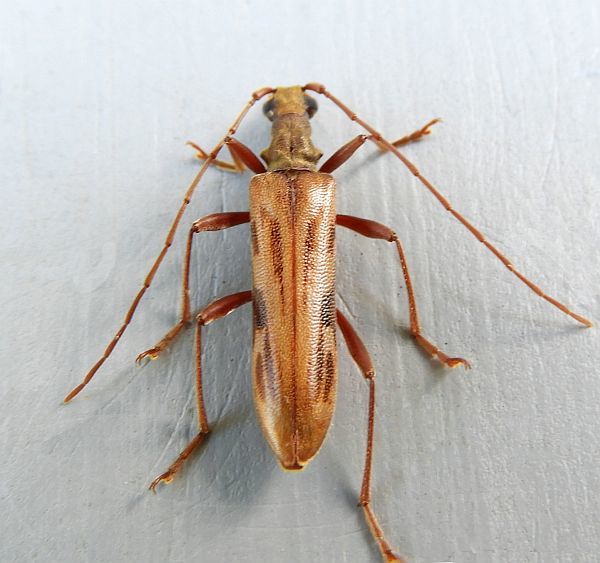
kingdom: Animalia
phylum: Arthropoda
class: Insecta
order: Coleoptera
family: Cerambycidae
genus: Leptorhabdium
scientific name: Leptorhabdium pictum
